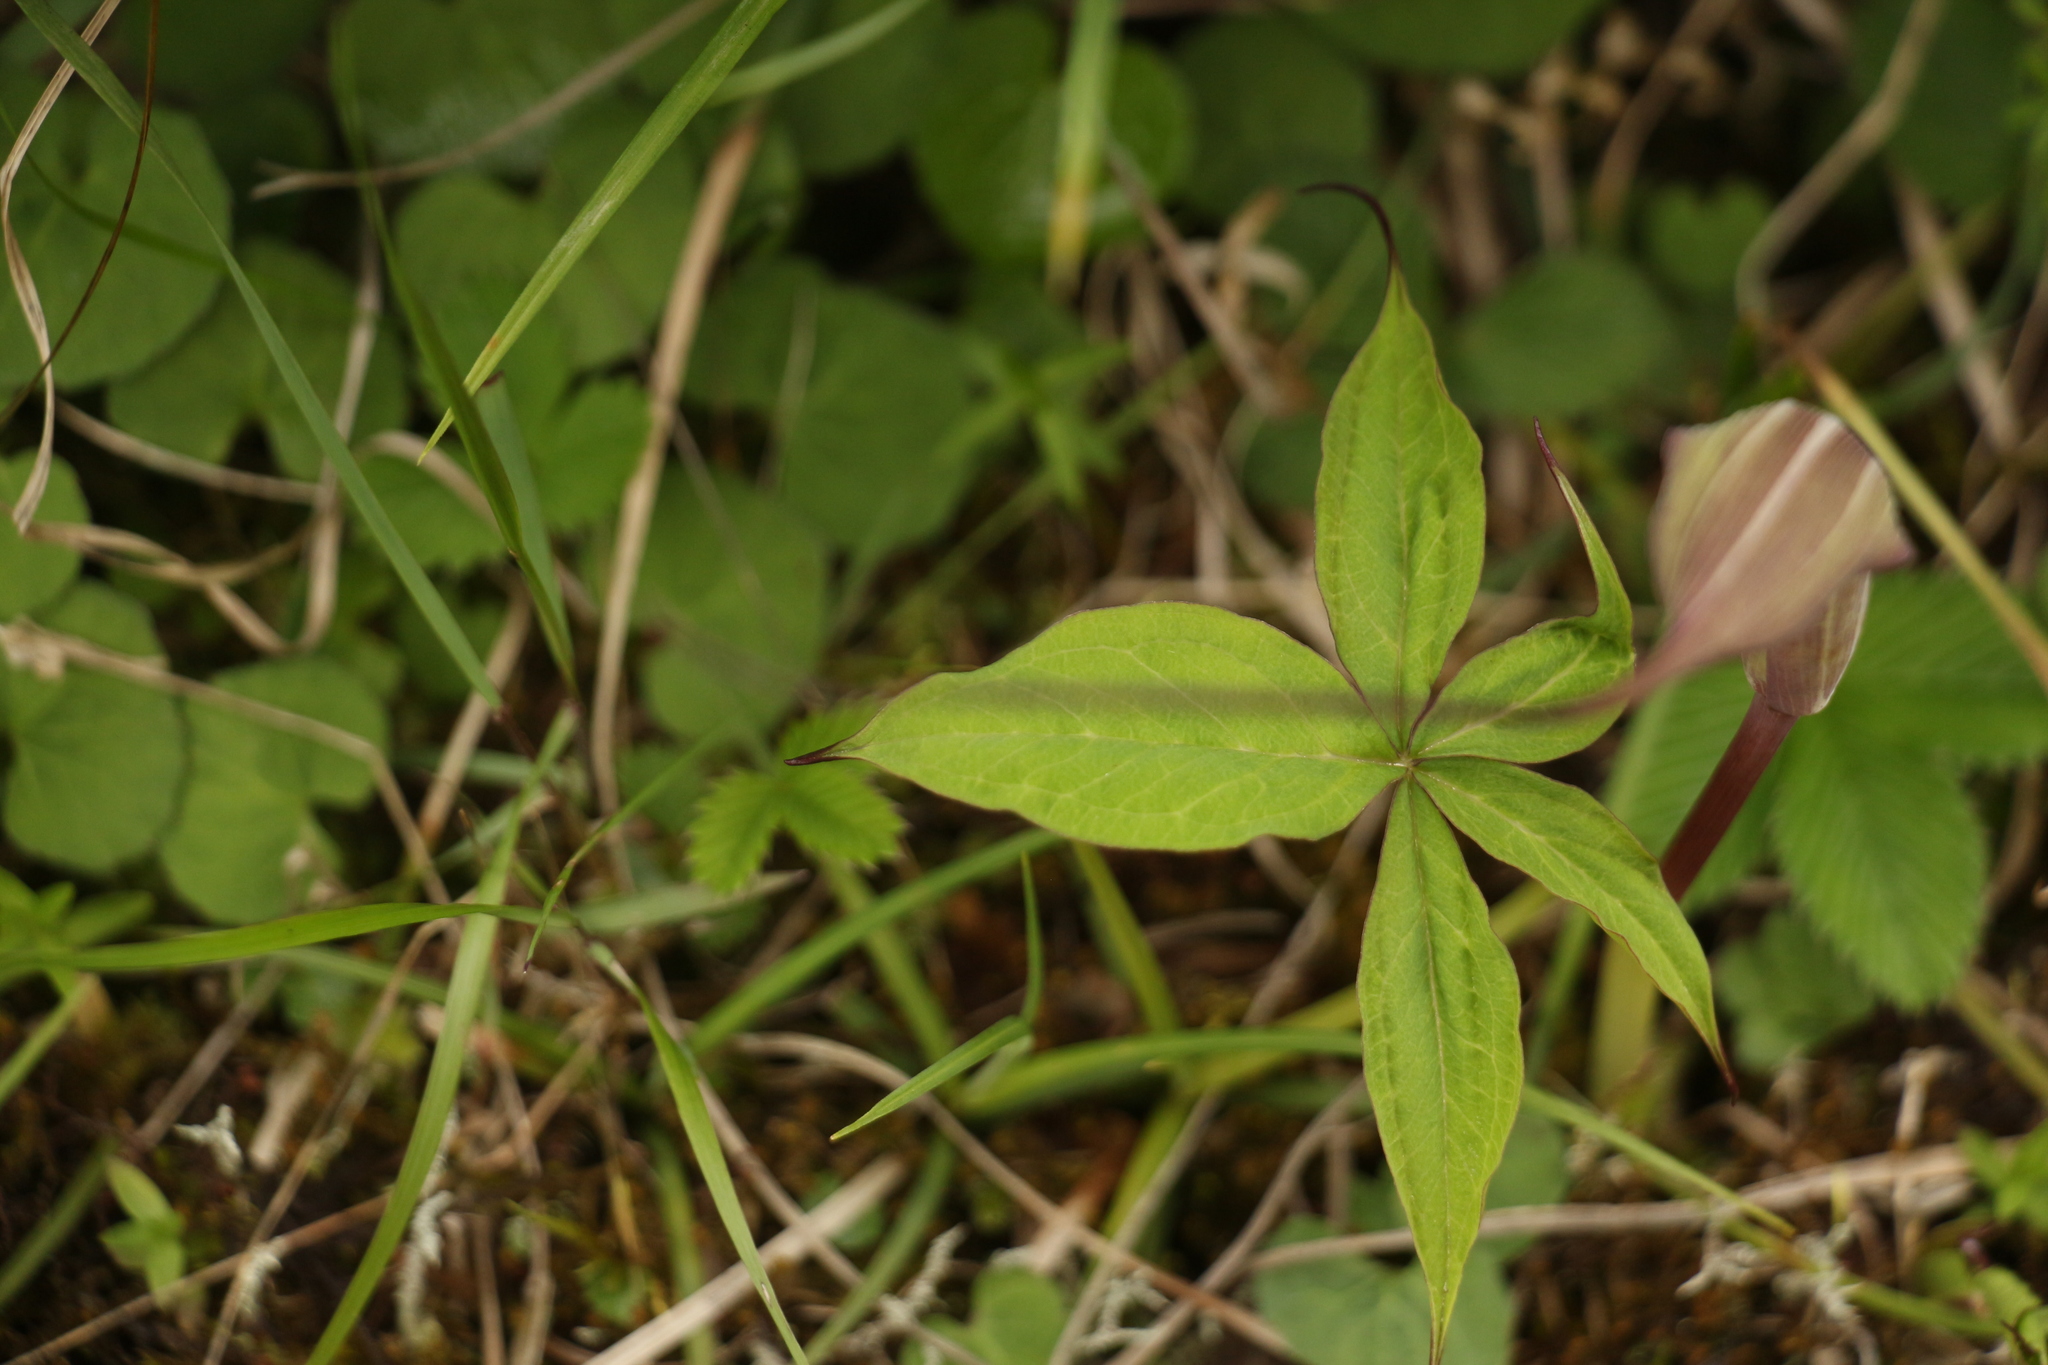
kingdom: Plantae
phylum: Tracheophyta
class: Liliopsida
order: Alismatales
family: Araceae
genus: Arisaema
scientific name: Arisaema jacquemontii
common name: Jacquemont's cobra-lily
